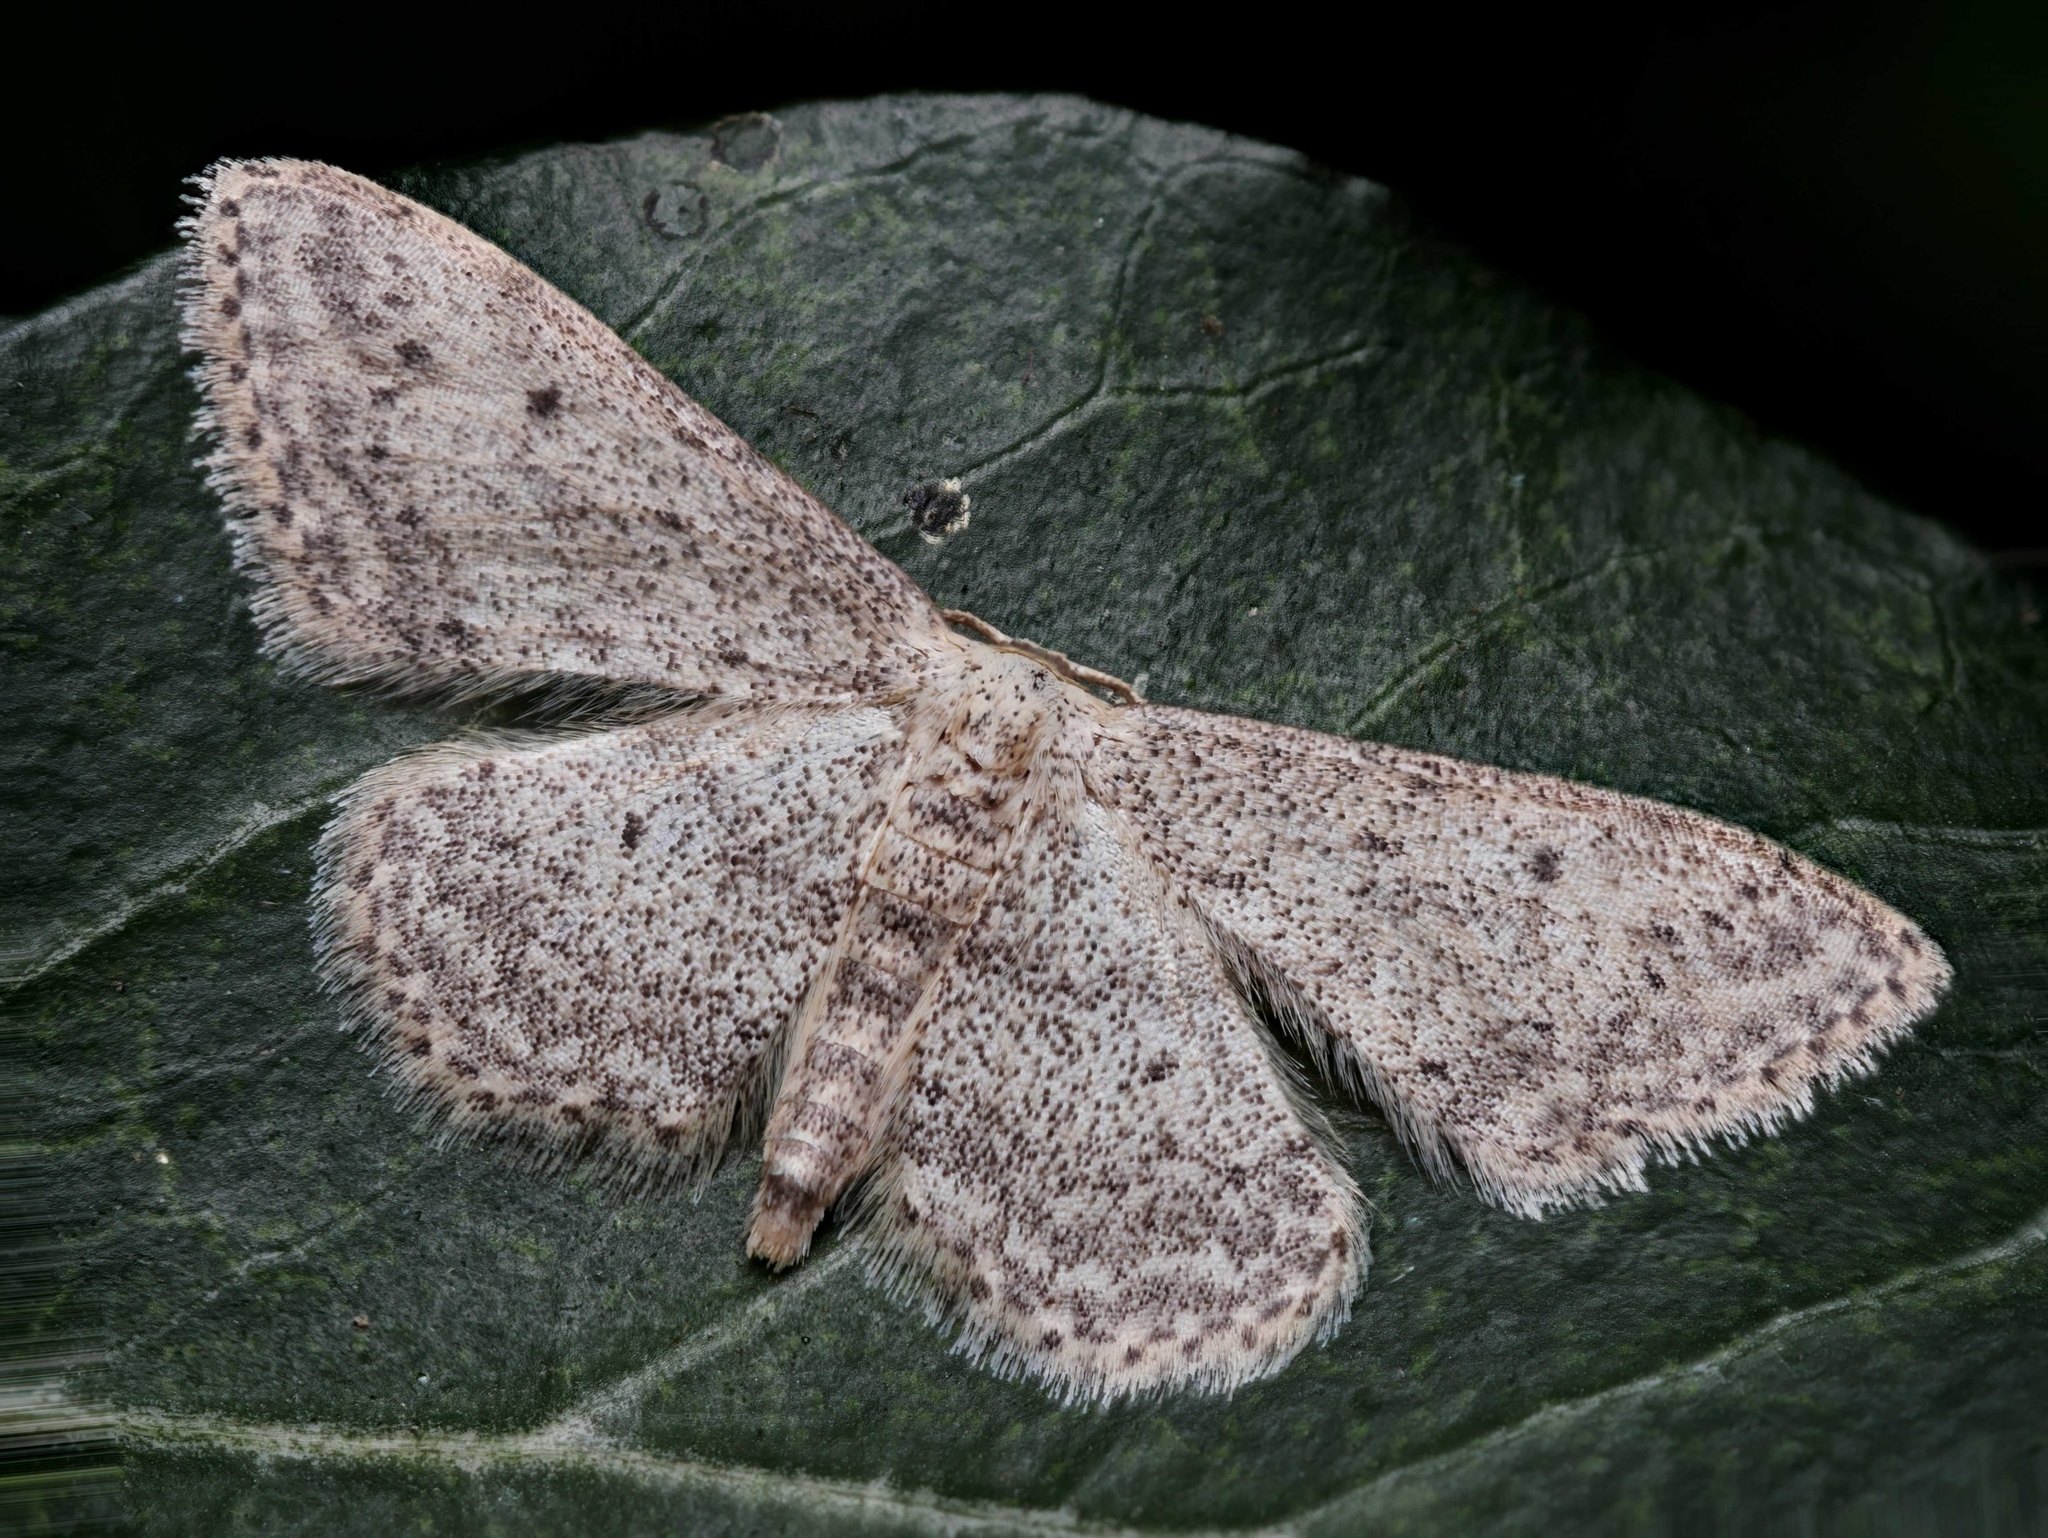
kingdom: Animalia
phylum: Arthropoda
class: Insecta
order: Lepidoptera
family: Geometridae
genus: Idaea
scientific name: Idaea seriata
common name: Small dusty wave
